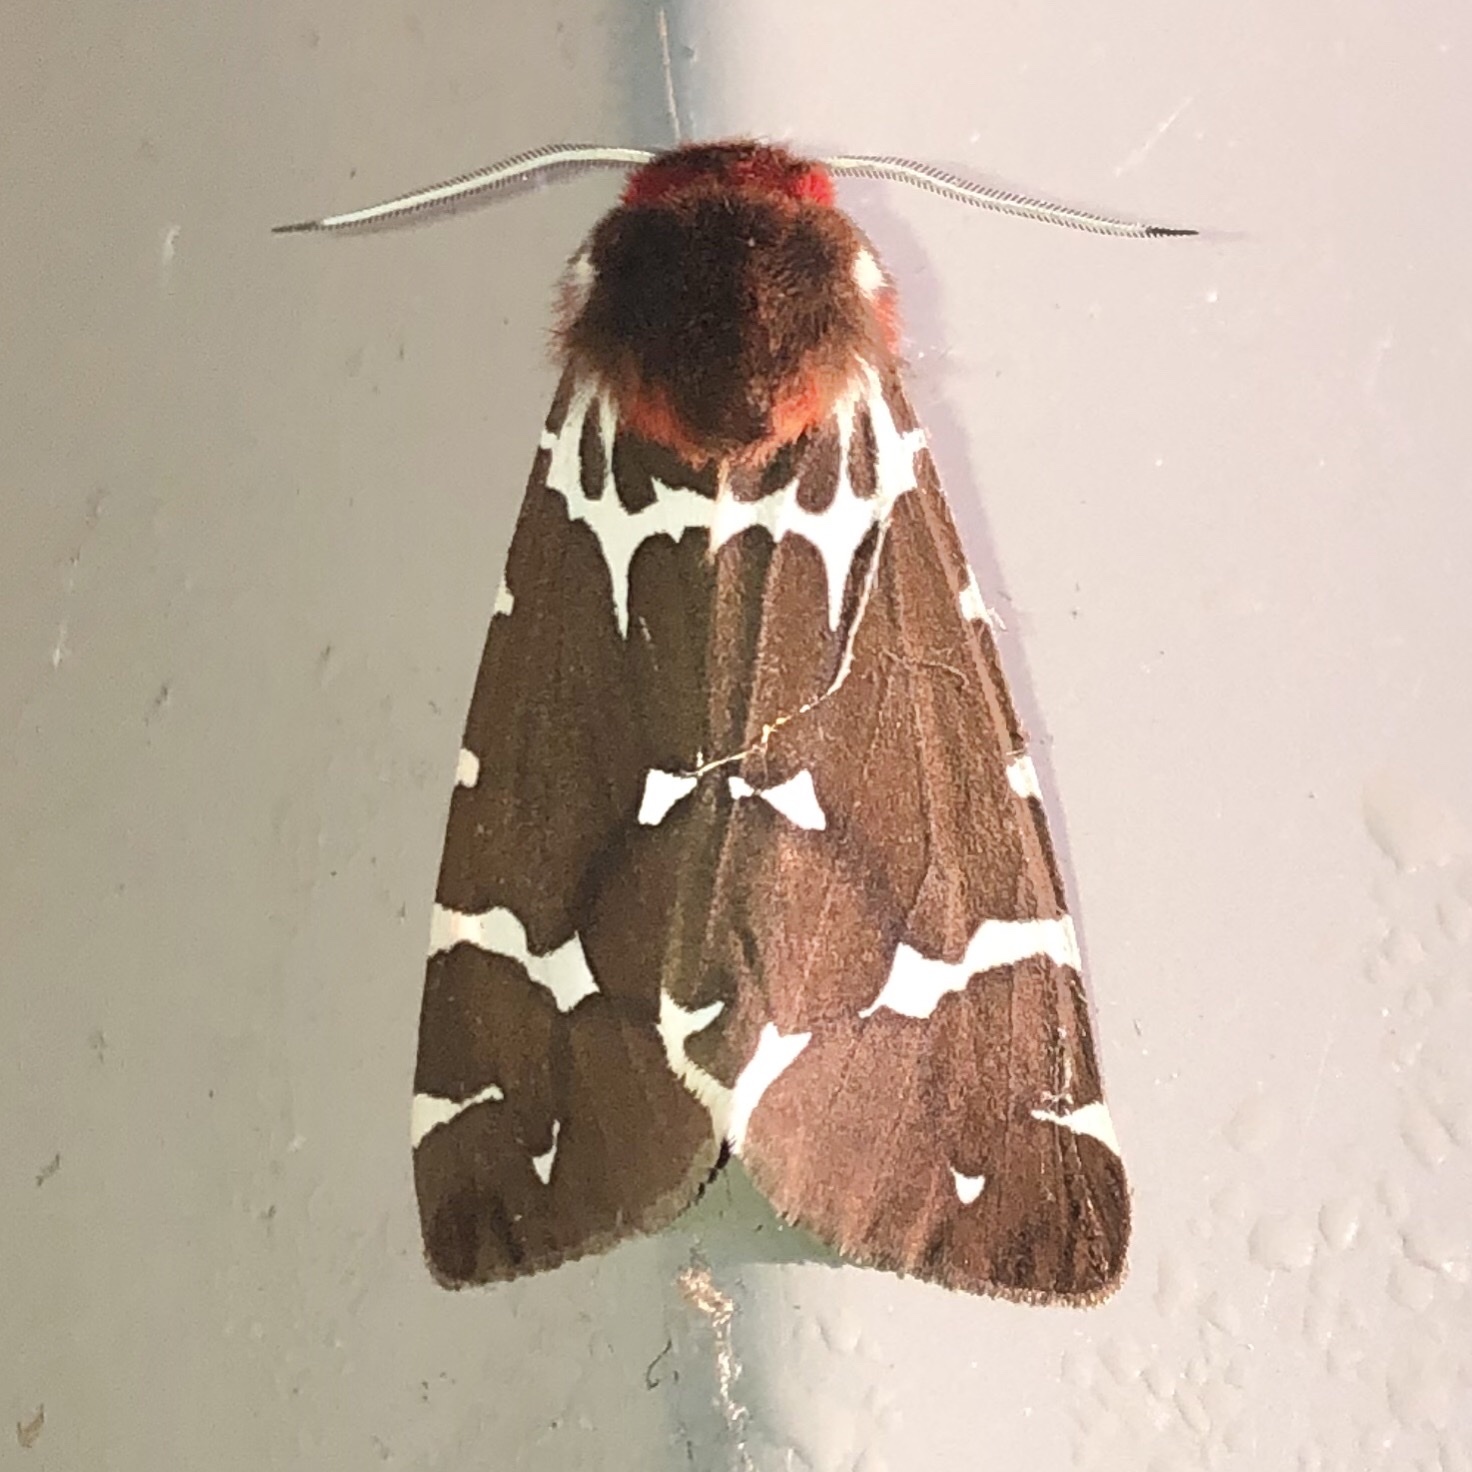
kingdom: Animalia
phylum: Arthropoda
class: Insecta
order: Lepidoptera
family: Erebidae
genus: Arctia
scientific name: Arctia caja
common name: Garden tiger
